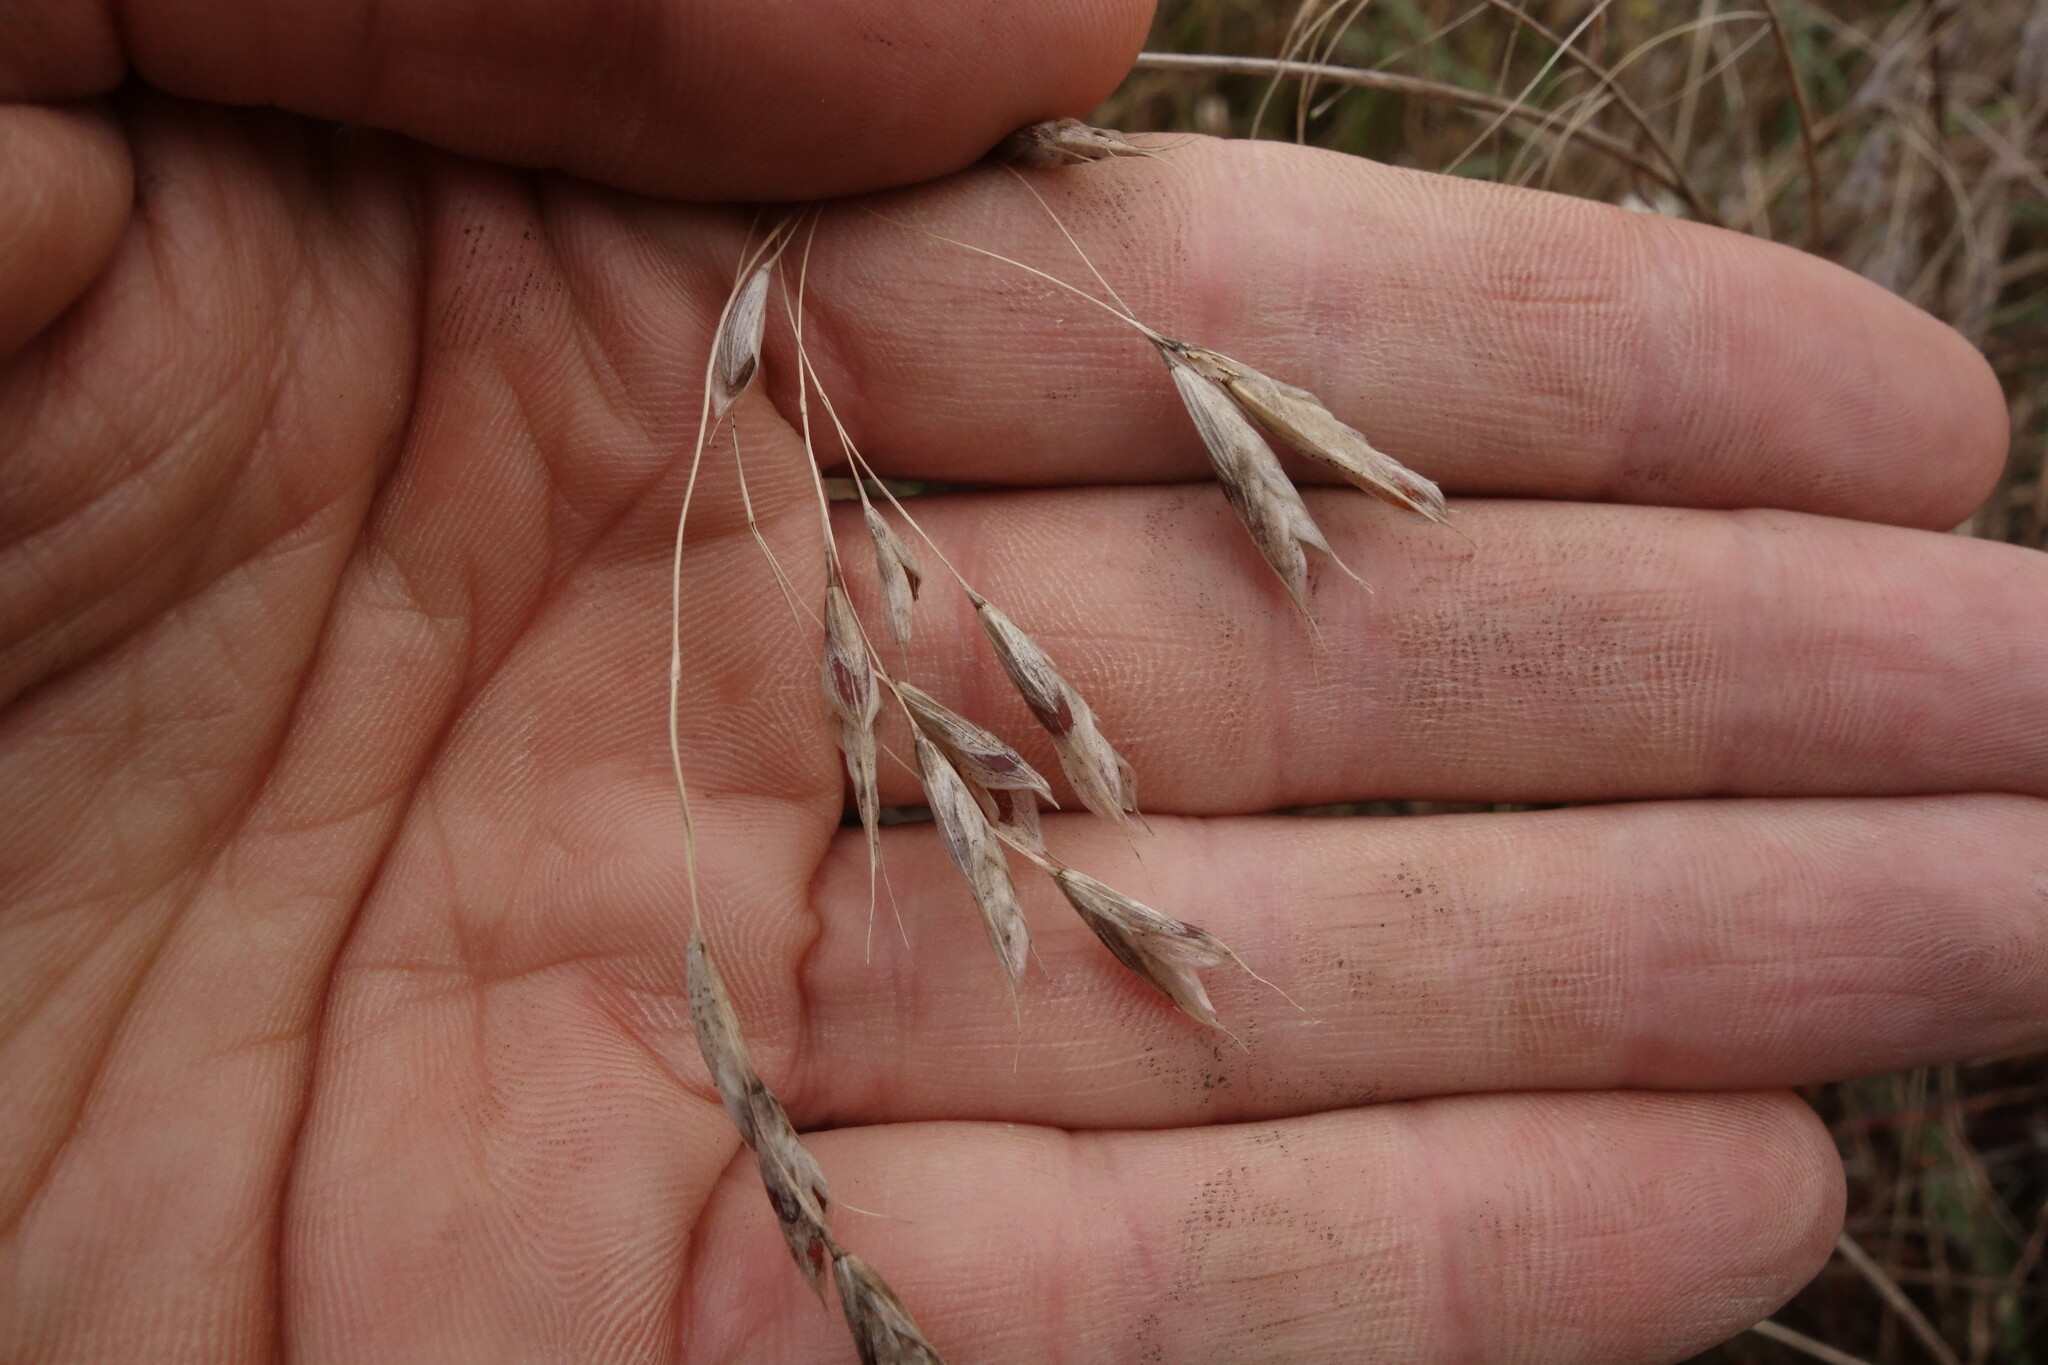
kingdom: Plantae
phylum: Tracheophyta
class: Liliopsida
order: Poales
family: Poaceae
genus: Bromus
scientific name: Bromus squarrosus
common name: Corn brome
